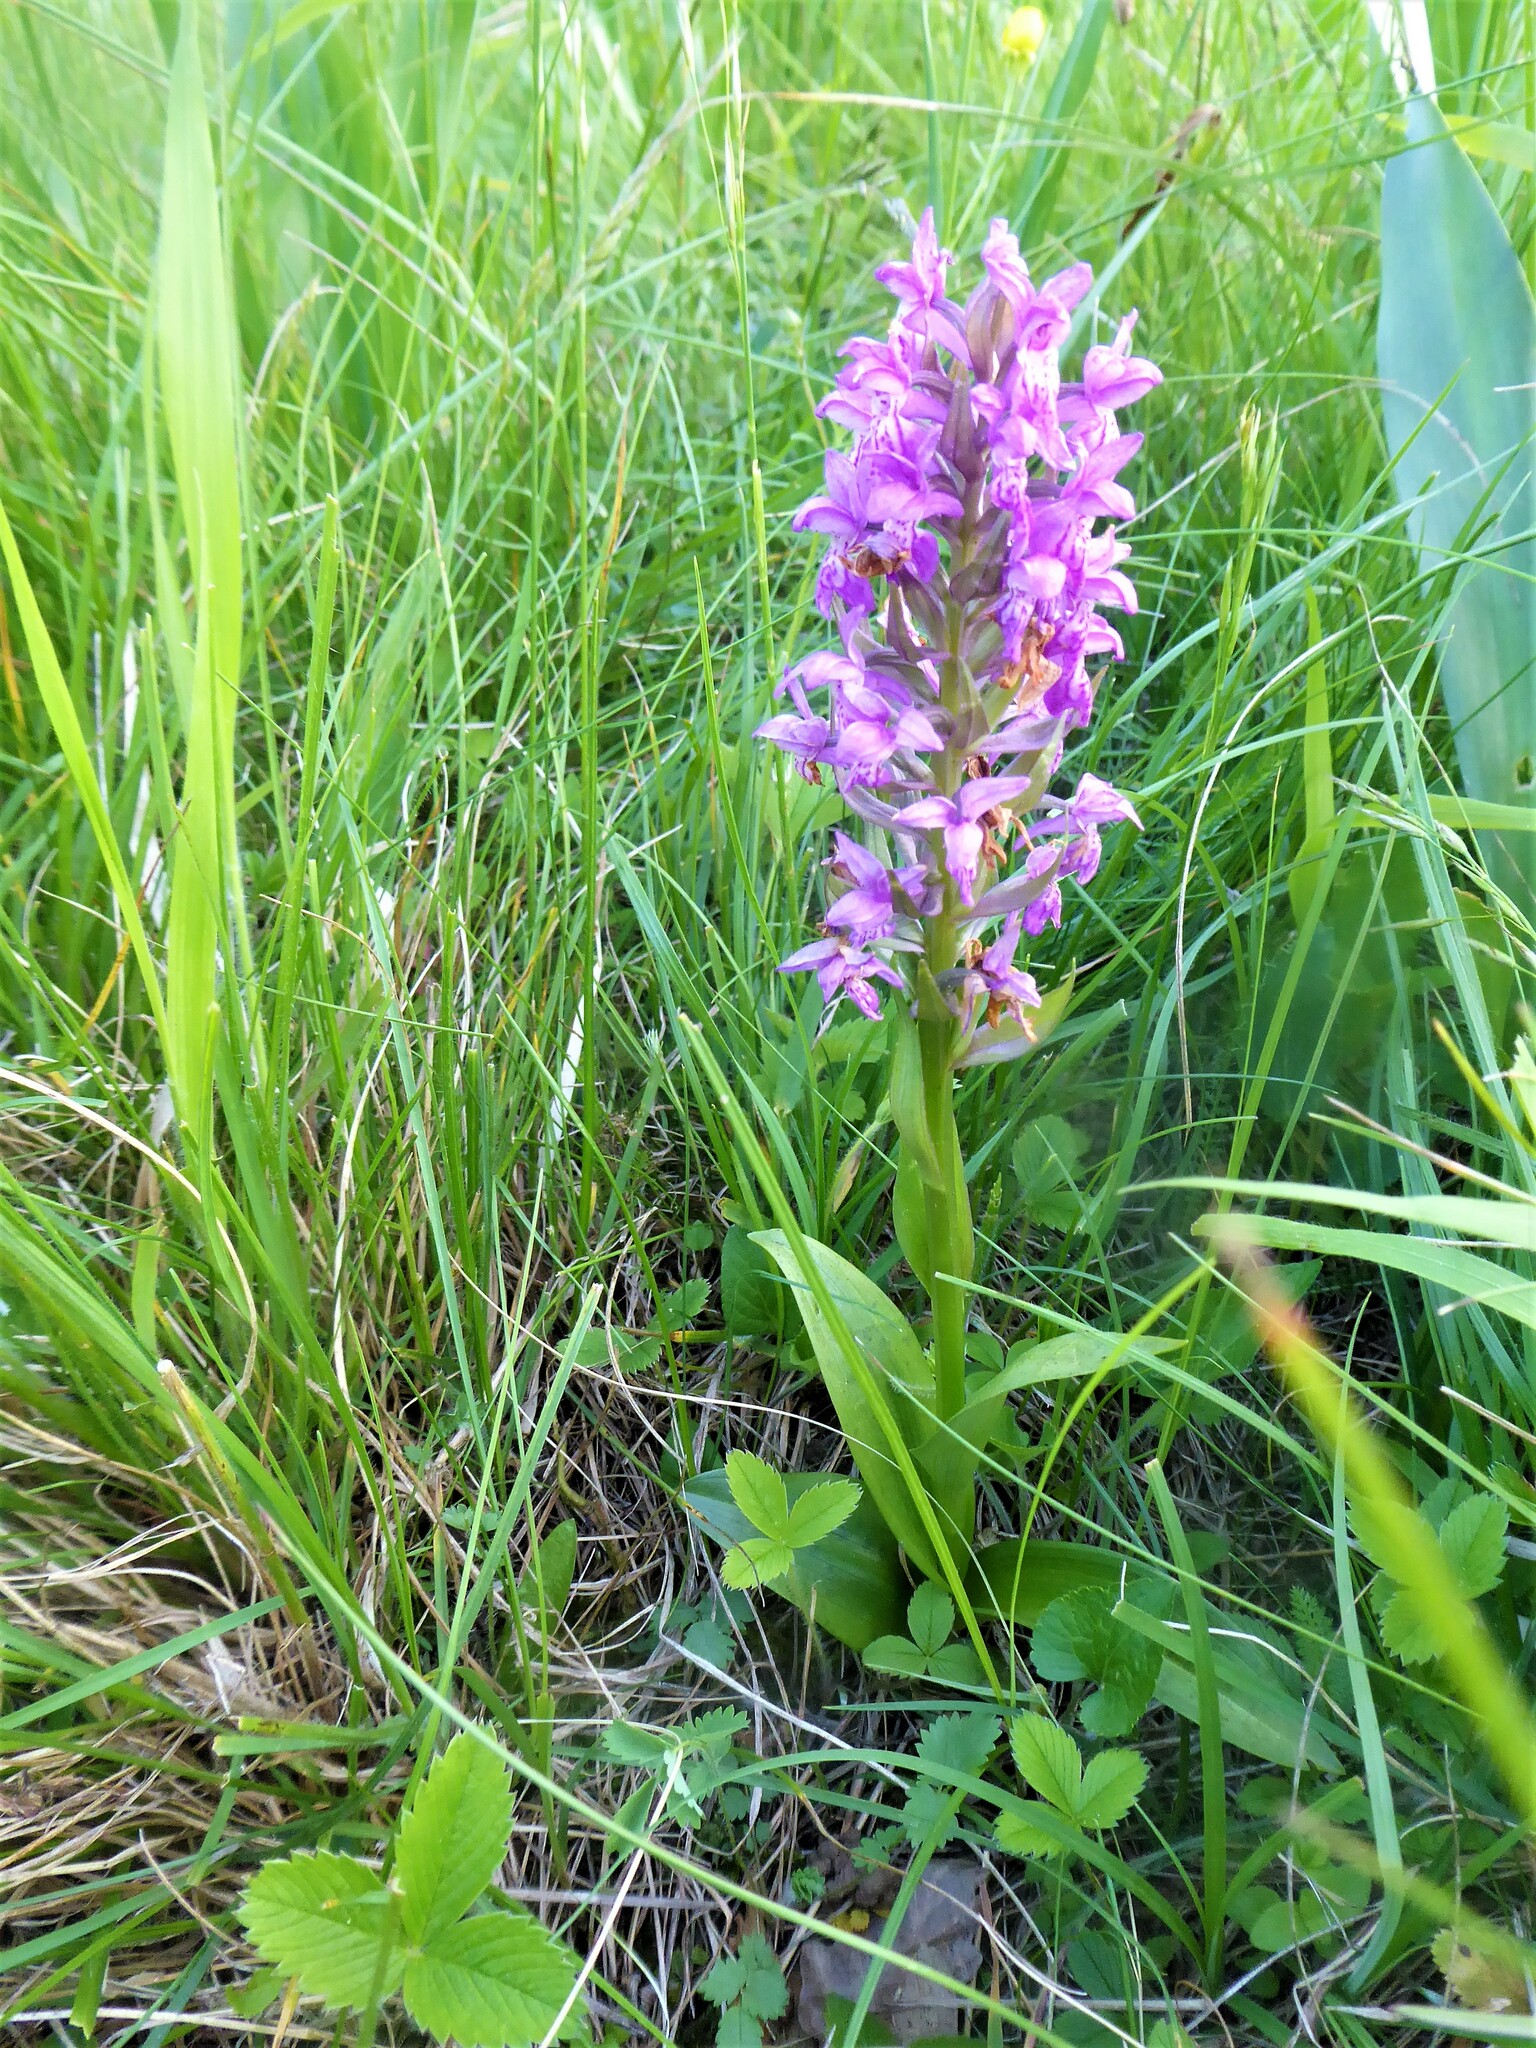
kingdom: Plantae
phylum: Tracheophyta
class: Liliopsida
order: Asparagales
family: Orchidaceae
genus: Dactylorhiza
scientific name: Dactylorhiza majalis
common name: Marsh orchid
